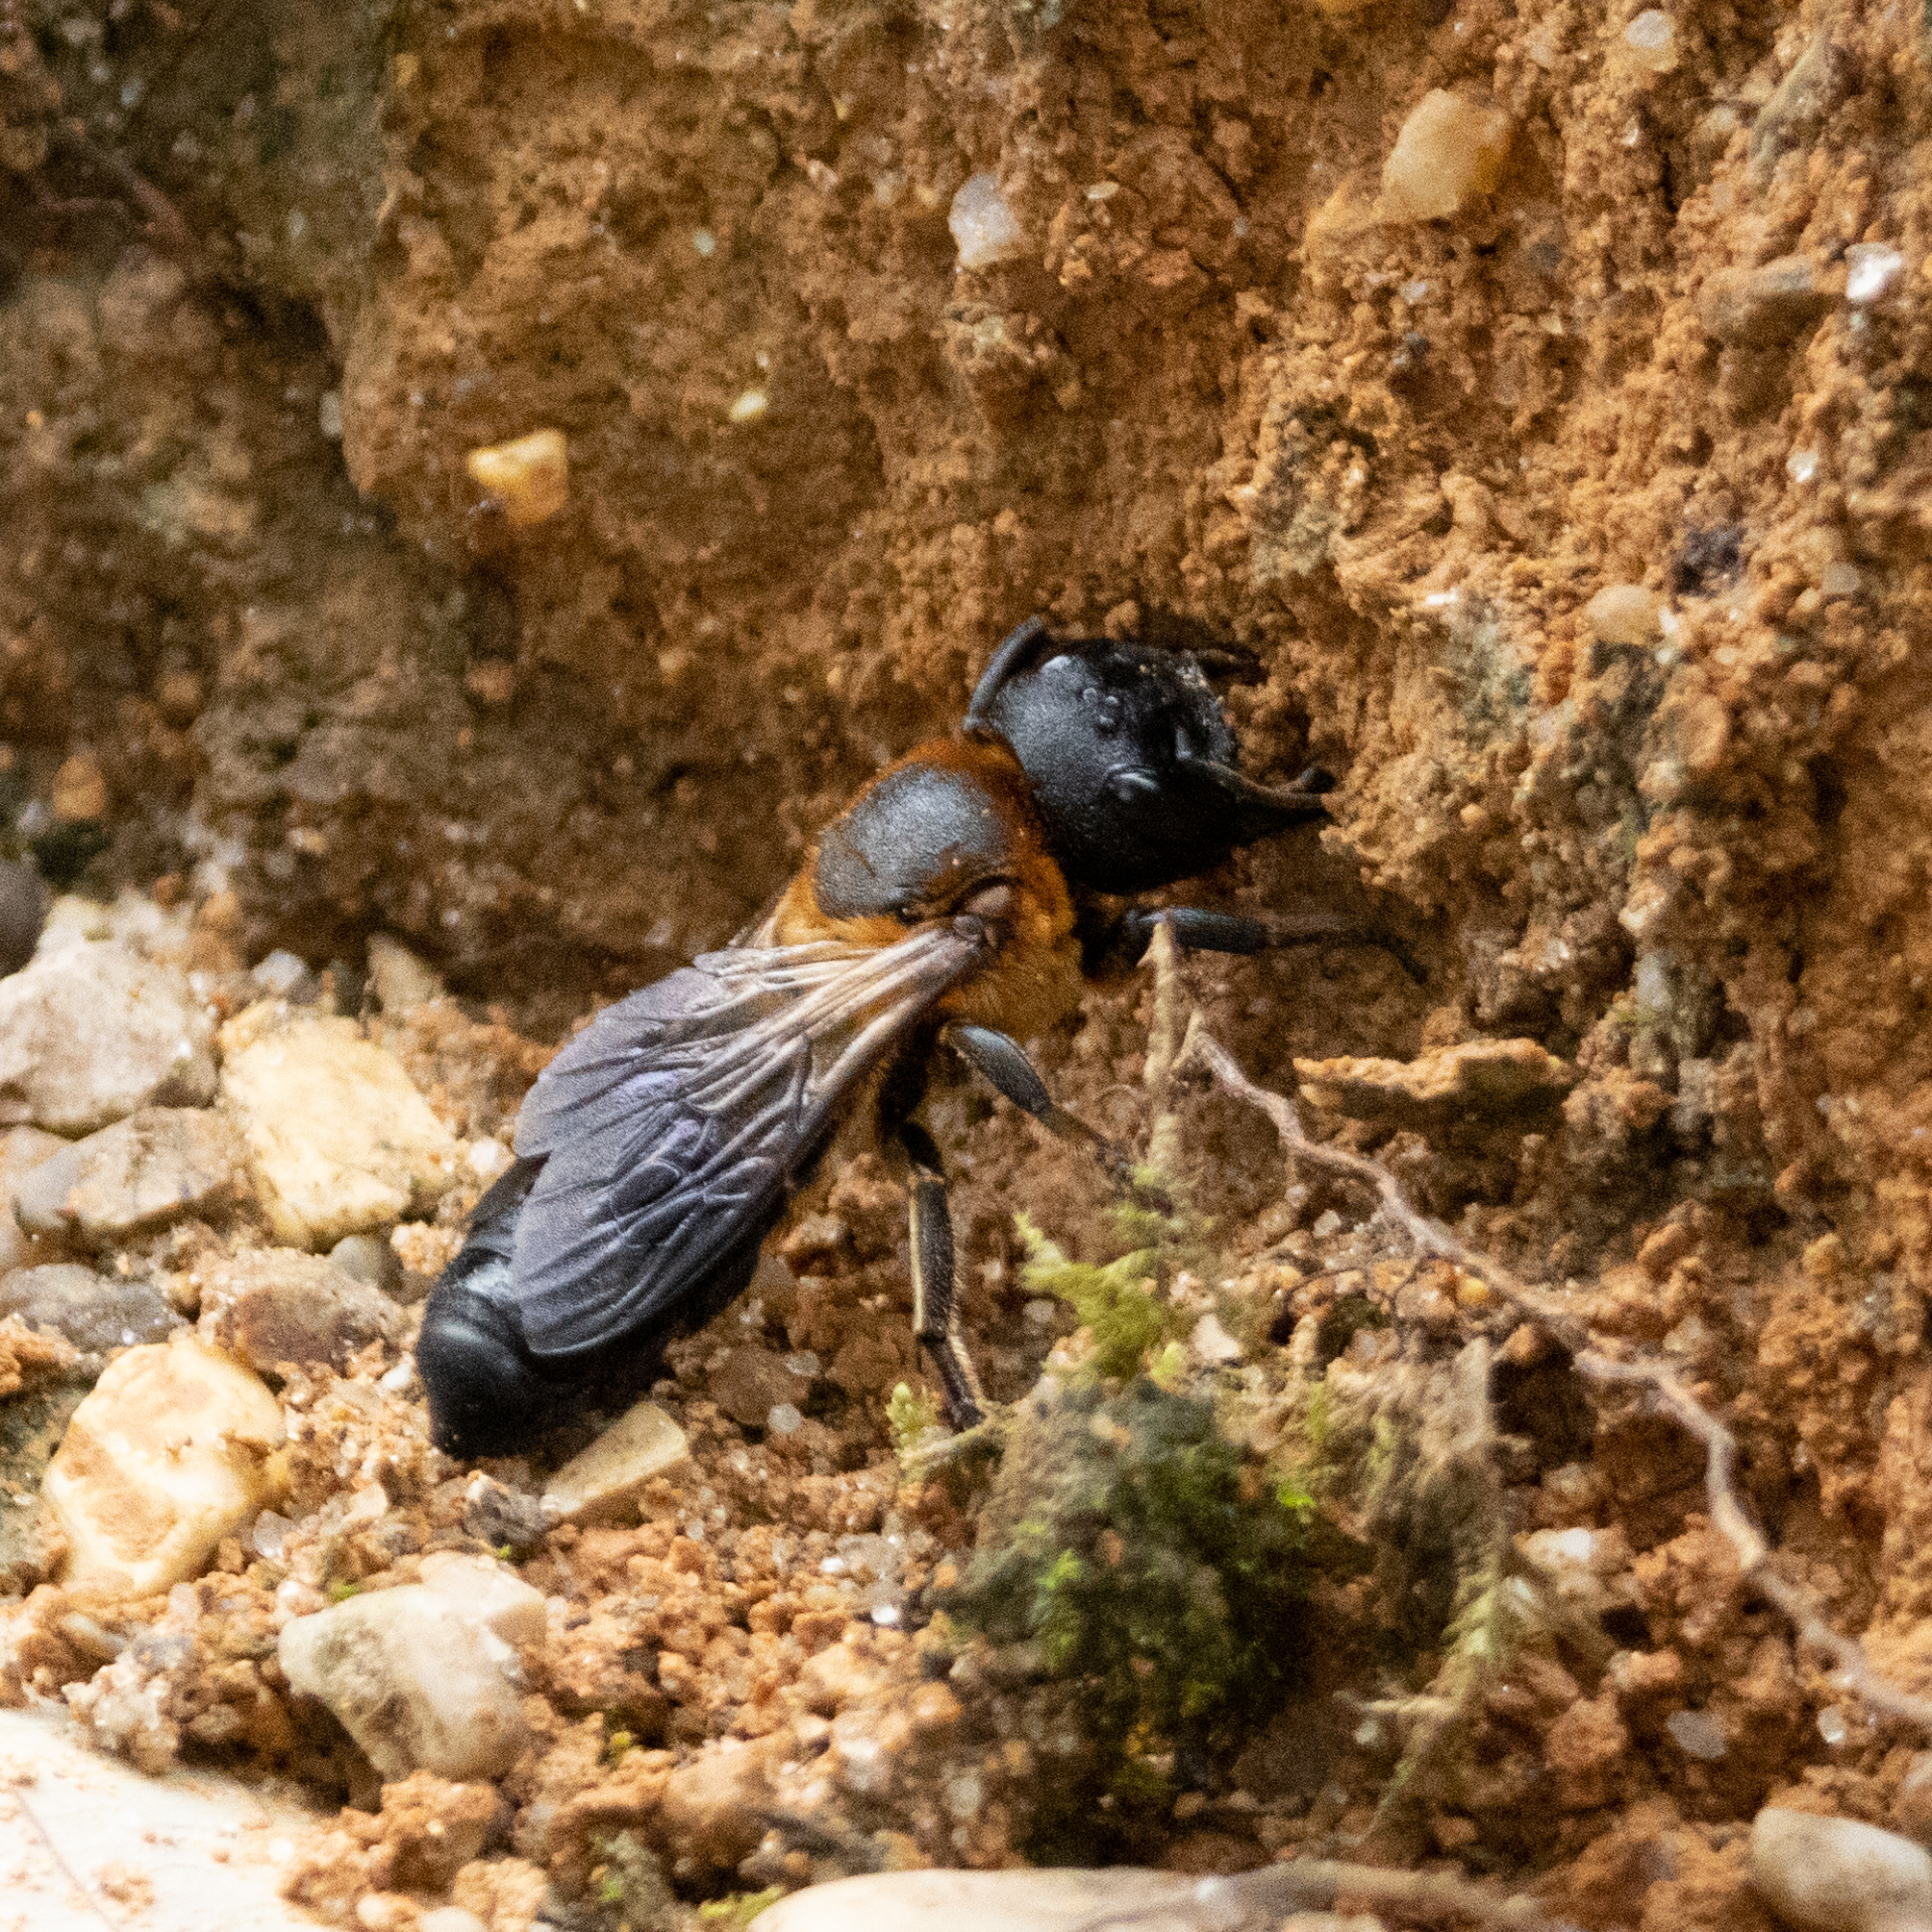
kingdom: Animalia
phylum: Arthropoda
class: Insecta
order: Hymenoptera
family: Megachilidae
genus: Megachile
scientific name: Megachile sculpturalis
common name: Sculptured resin bee
